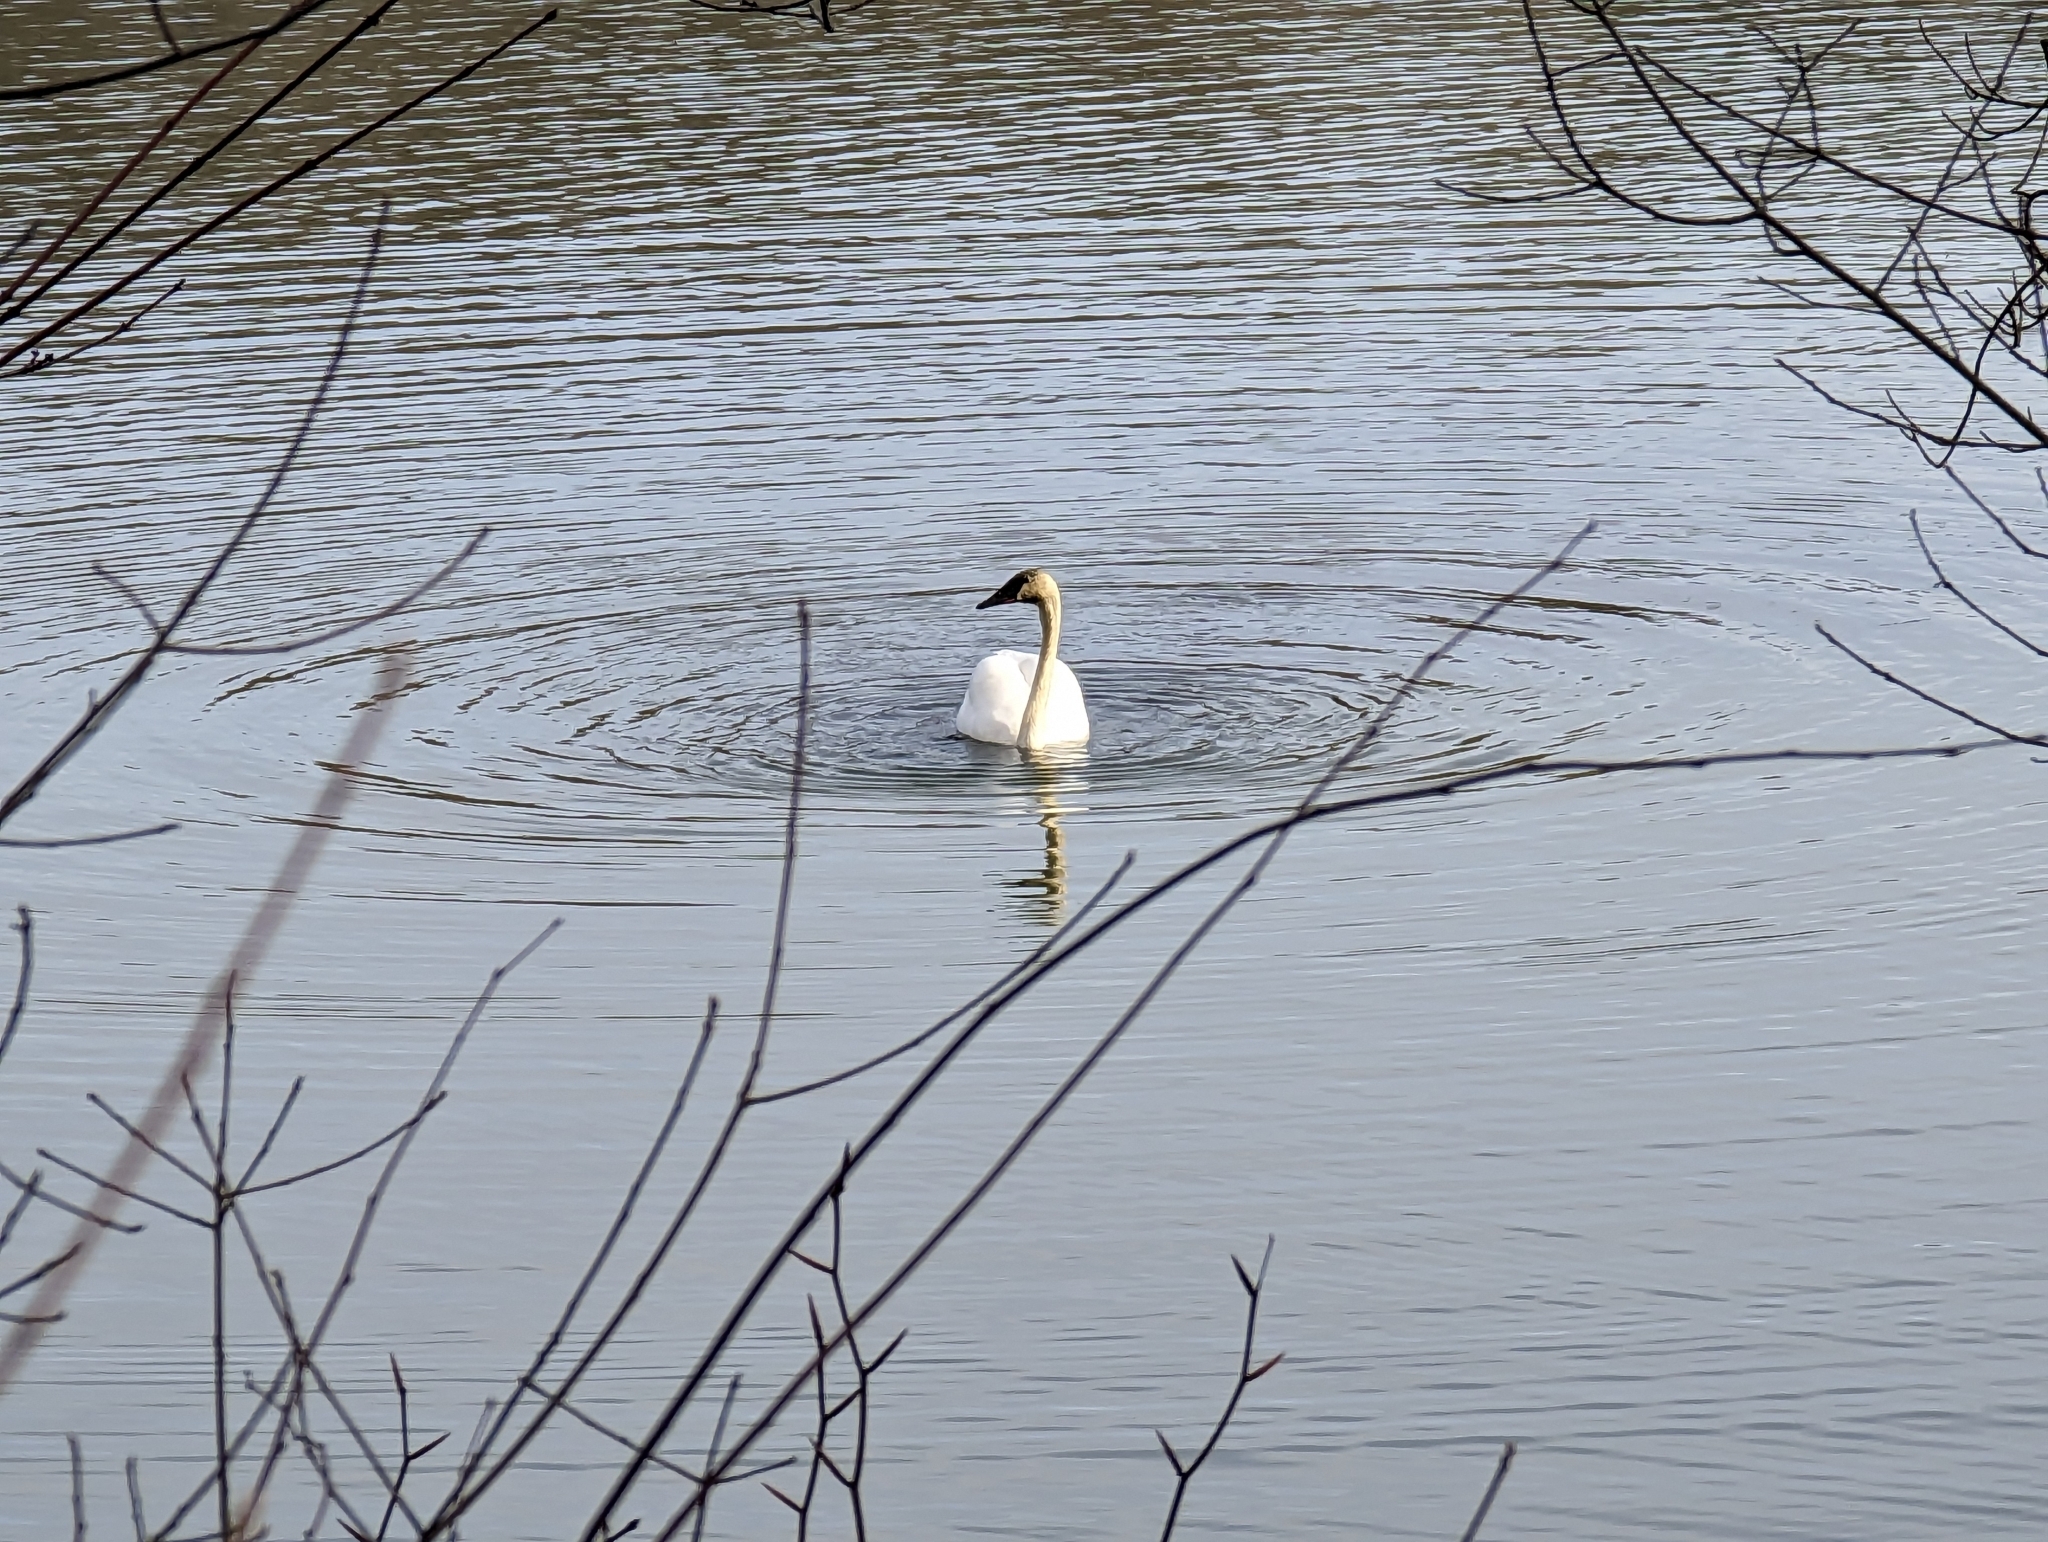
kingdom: Animalia
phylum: Chordata
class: Aves
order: Anseriformes
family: Anatidae
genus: Cygnus
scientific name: Cygnus buccinator
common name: Trumpeter swan
